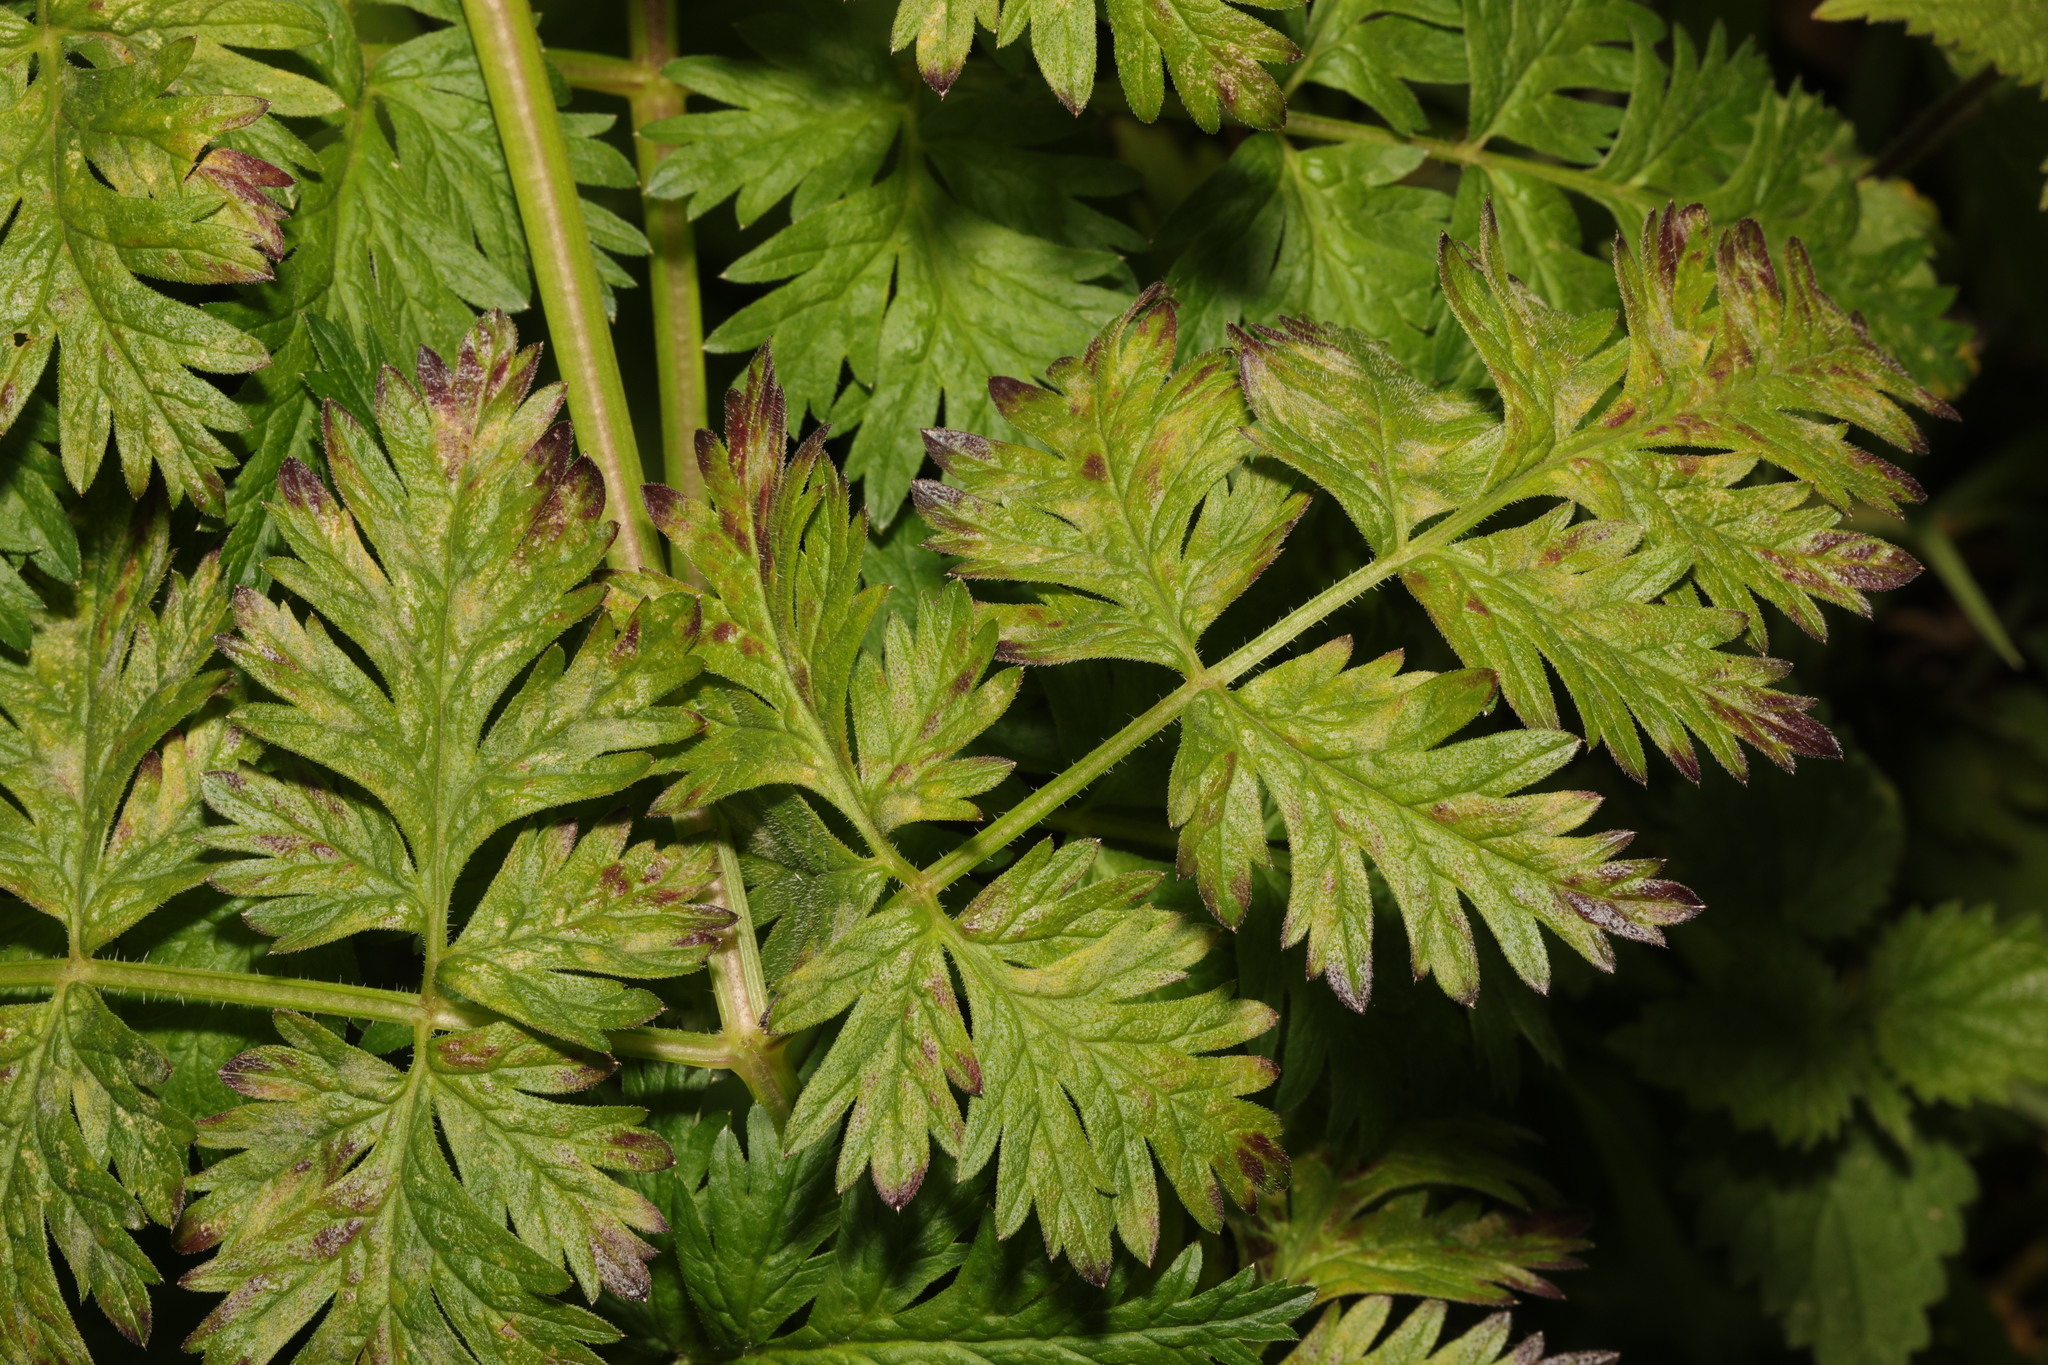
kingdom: Plantae
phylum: Tracheophyta
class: Magnoliopsida
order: Apiales
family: Apiaceae
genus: Anthriscus
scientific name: Anthriscus sylvestris
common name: Cow parsley
